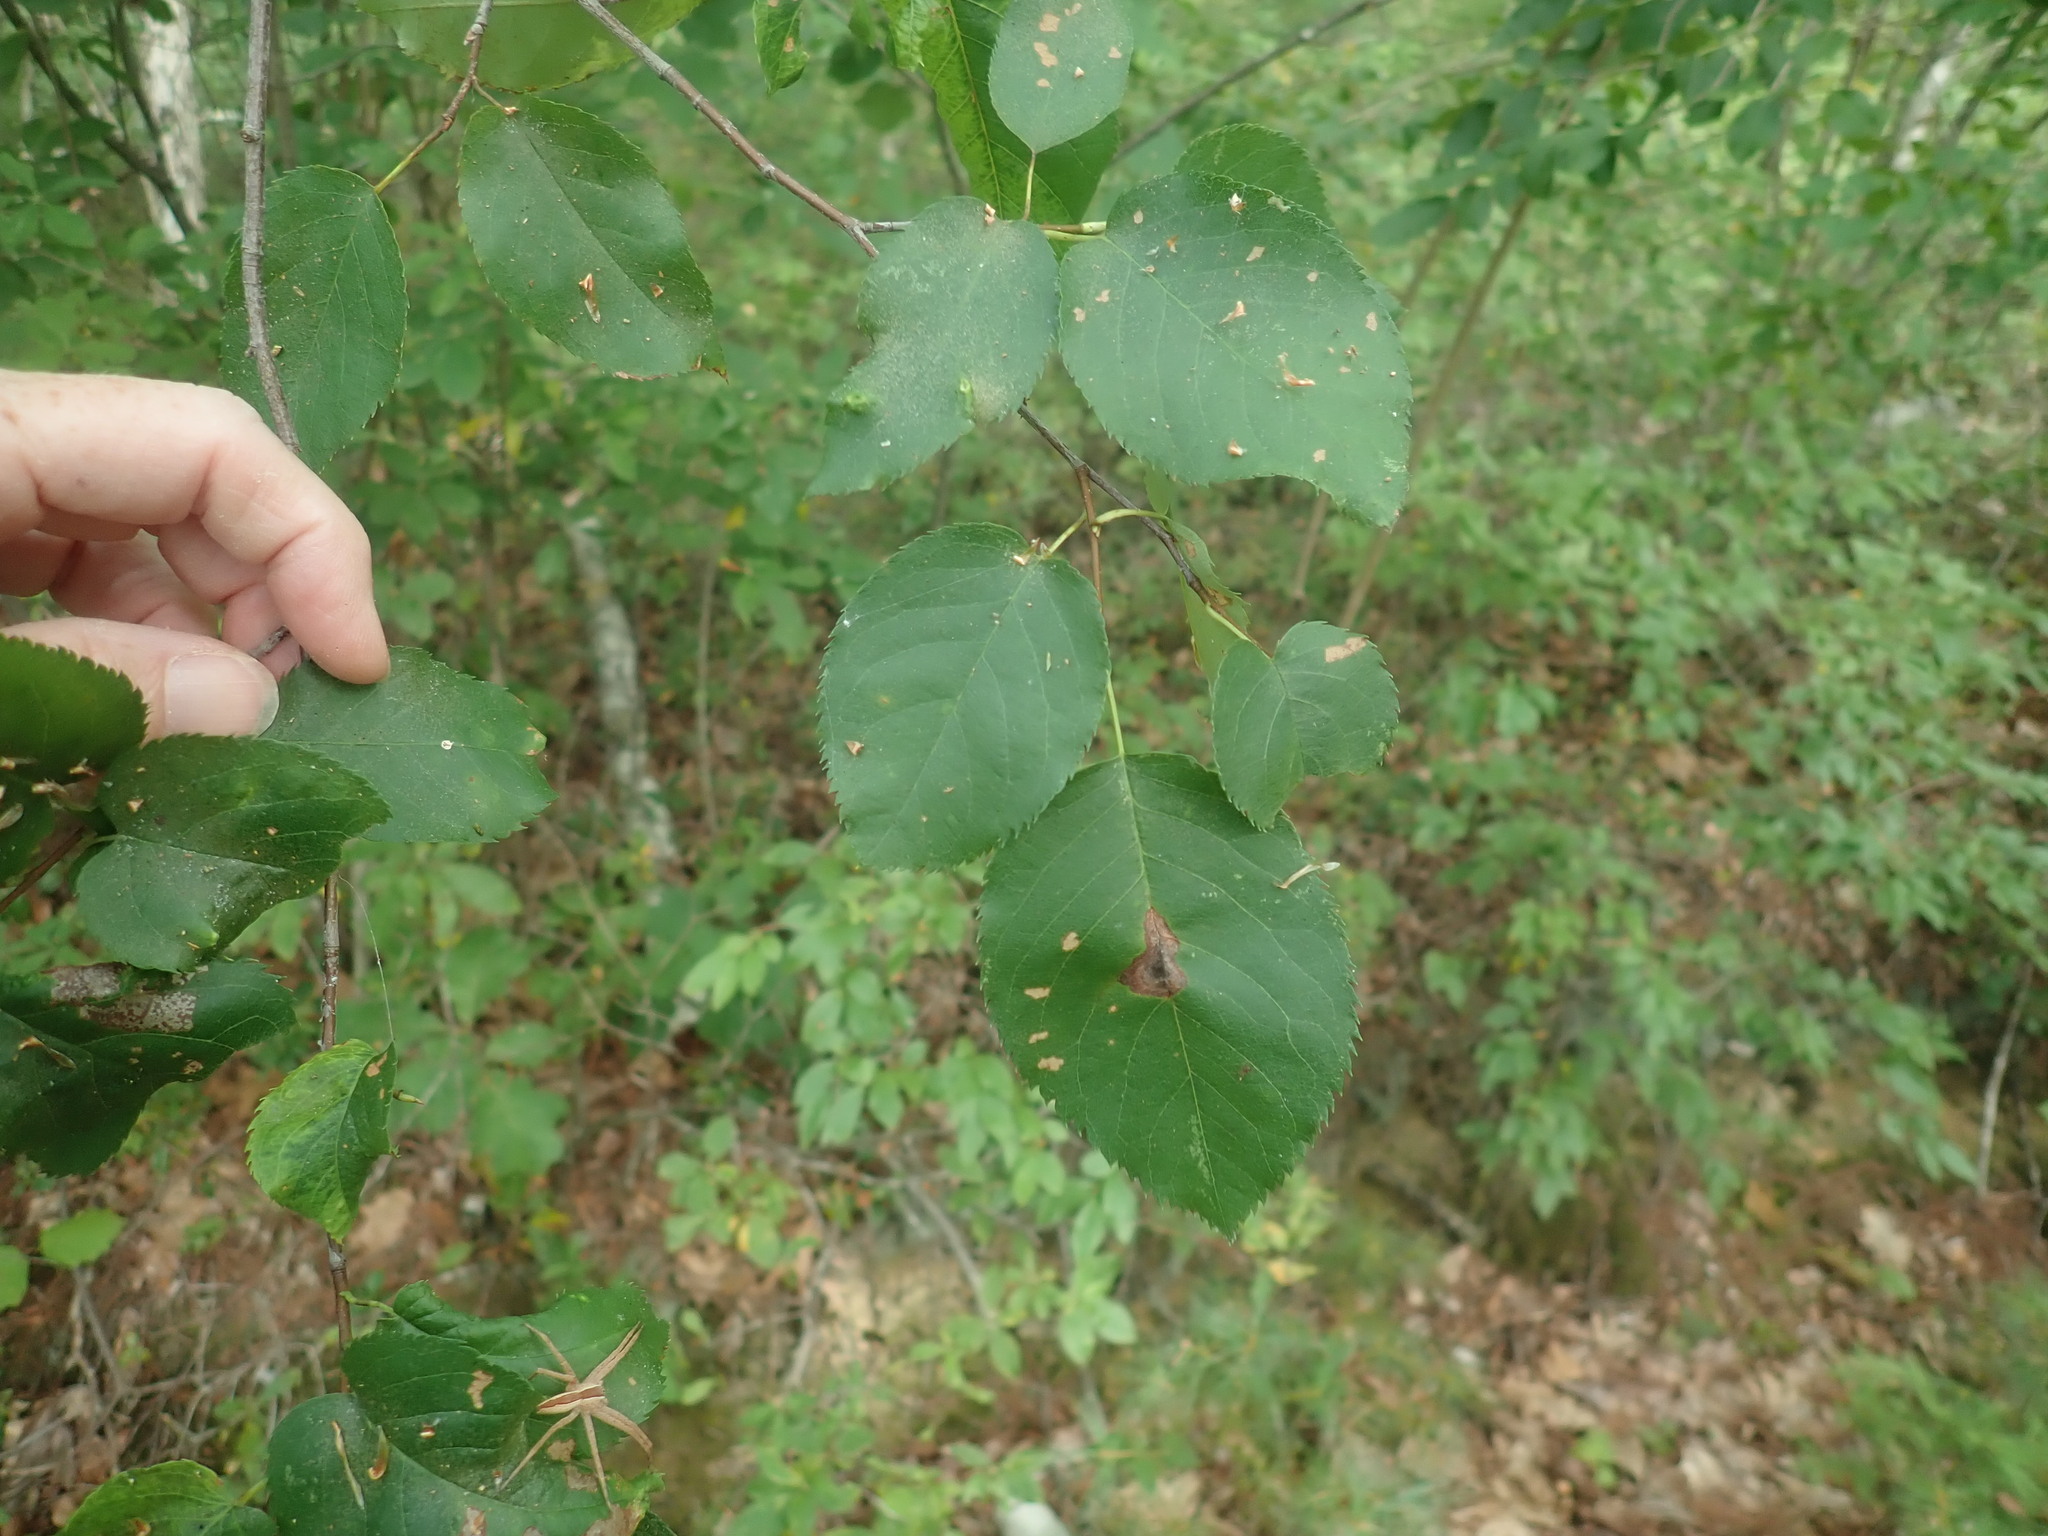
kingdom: Plantae
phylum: Tracheophyta
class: Magnoliopsida
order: Rosales
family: Rosaceae
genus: Amelanchier
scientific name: Amelanchier
